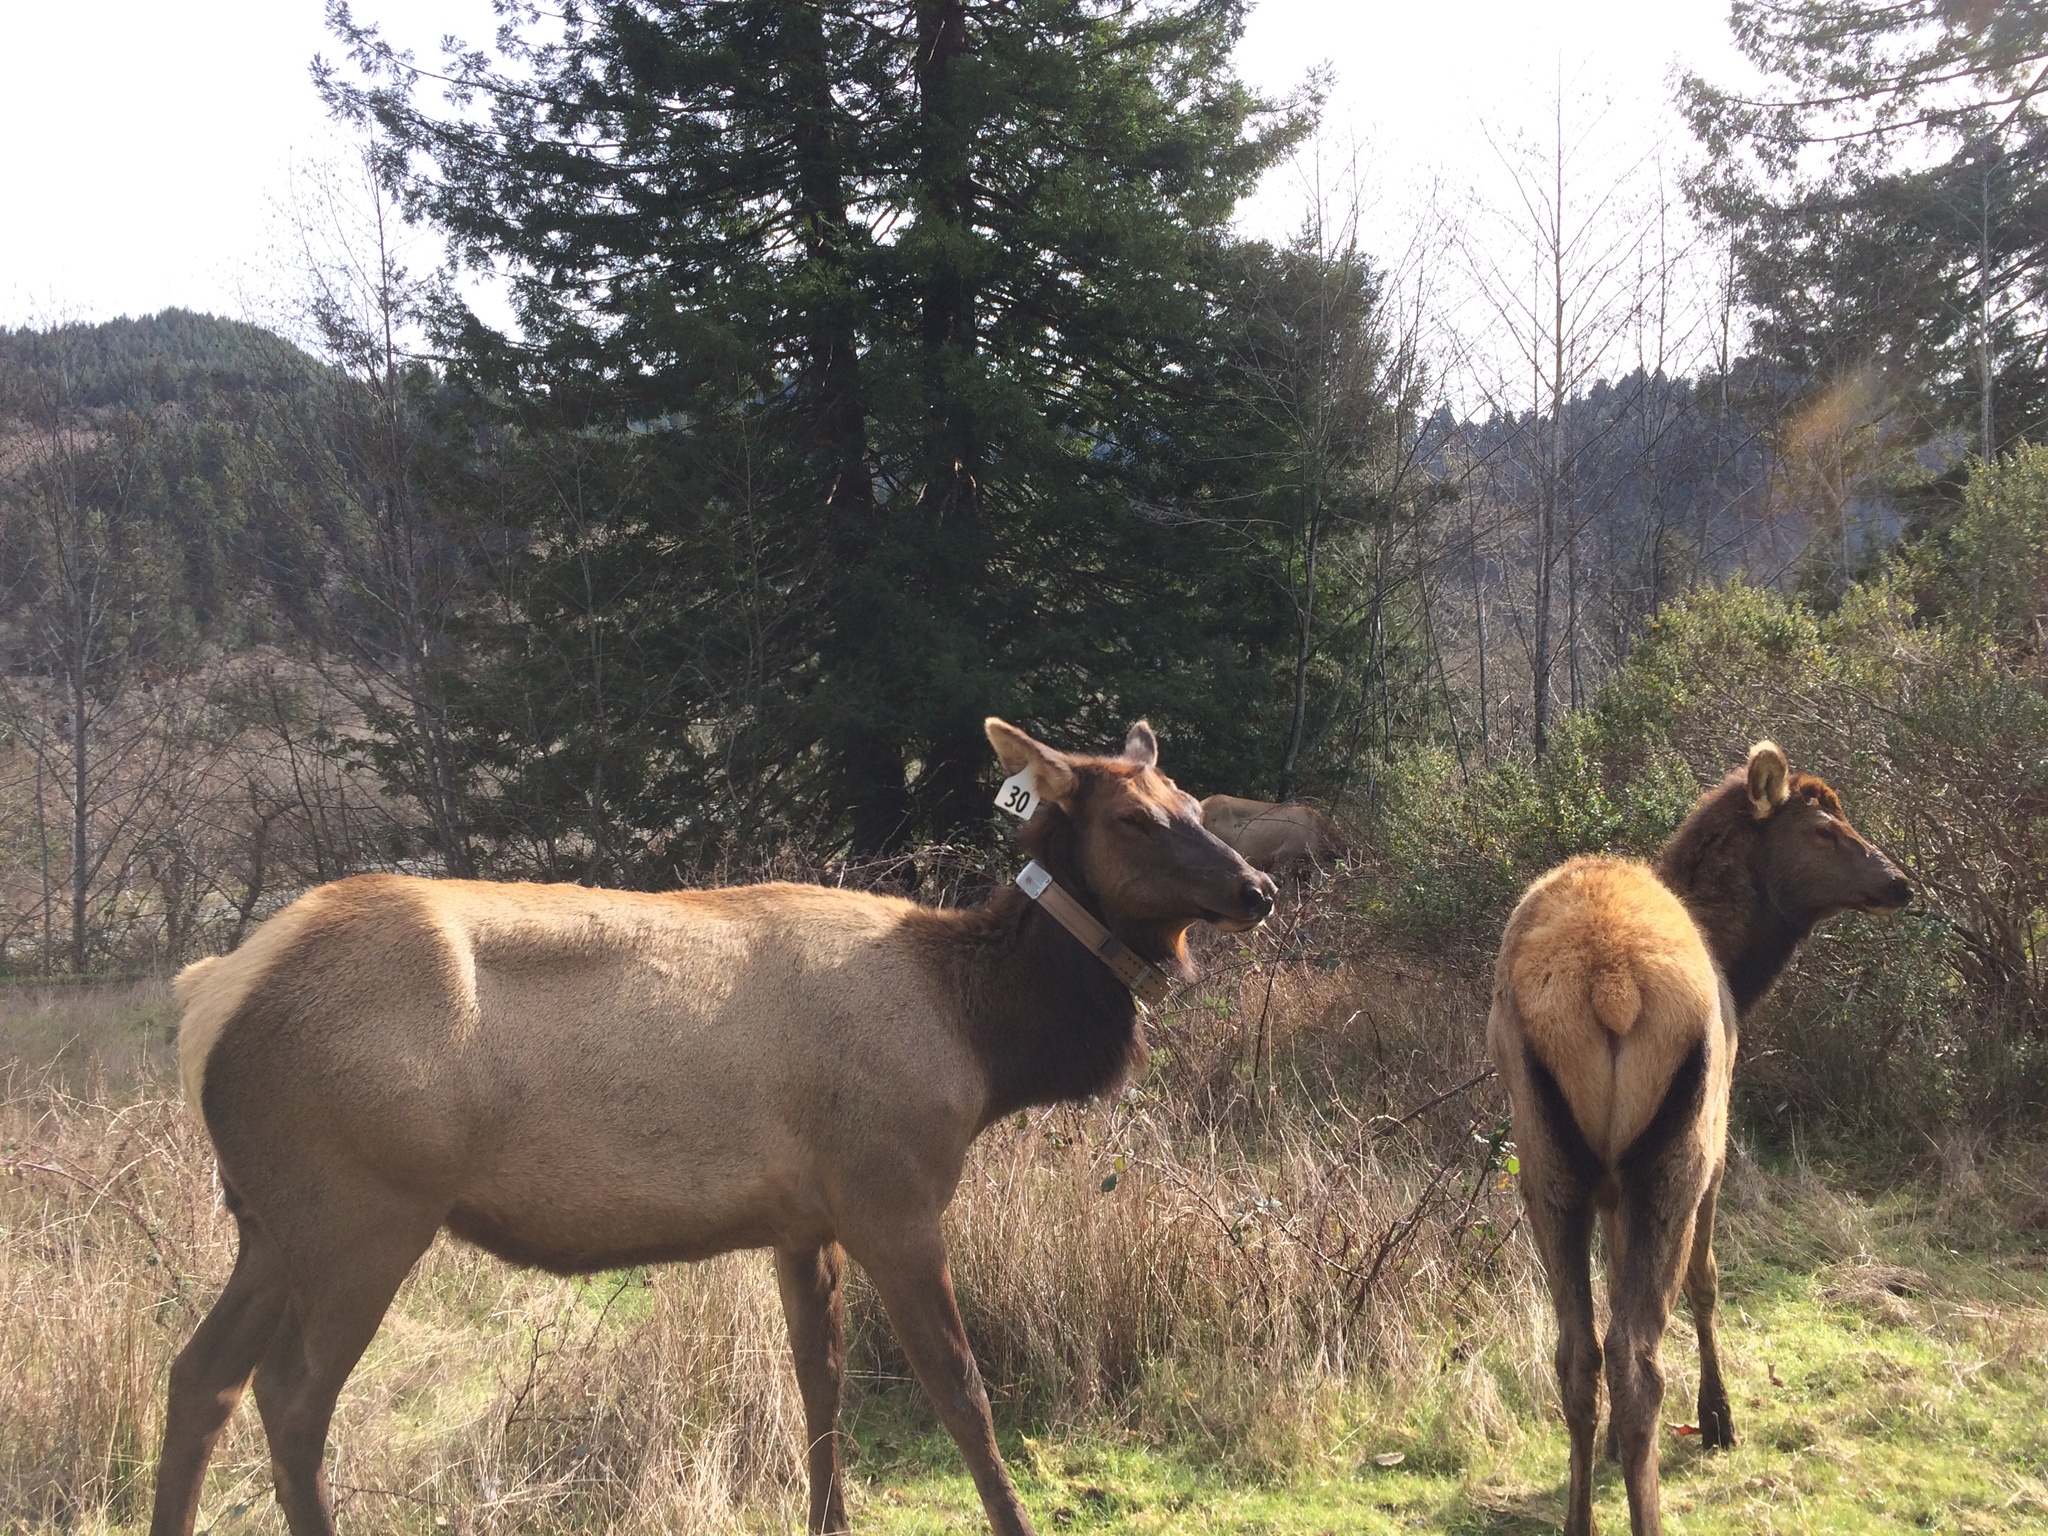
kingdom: Animalia
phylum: Chordata
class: Mammalia
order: Artiodactyla
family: Cervidae
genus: Cervus
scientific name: Cervus elaphus
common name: Red deer
